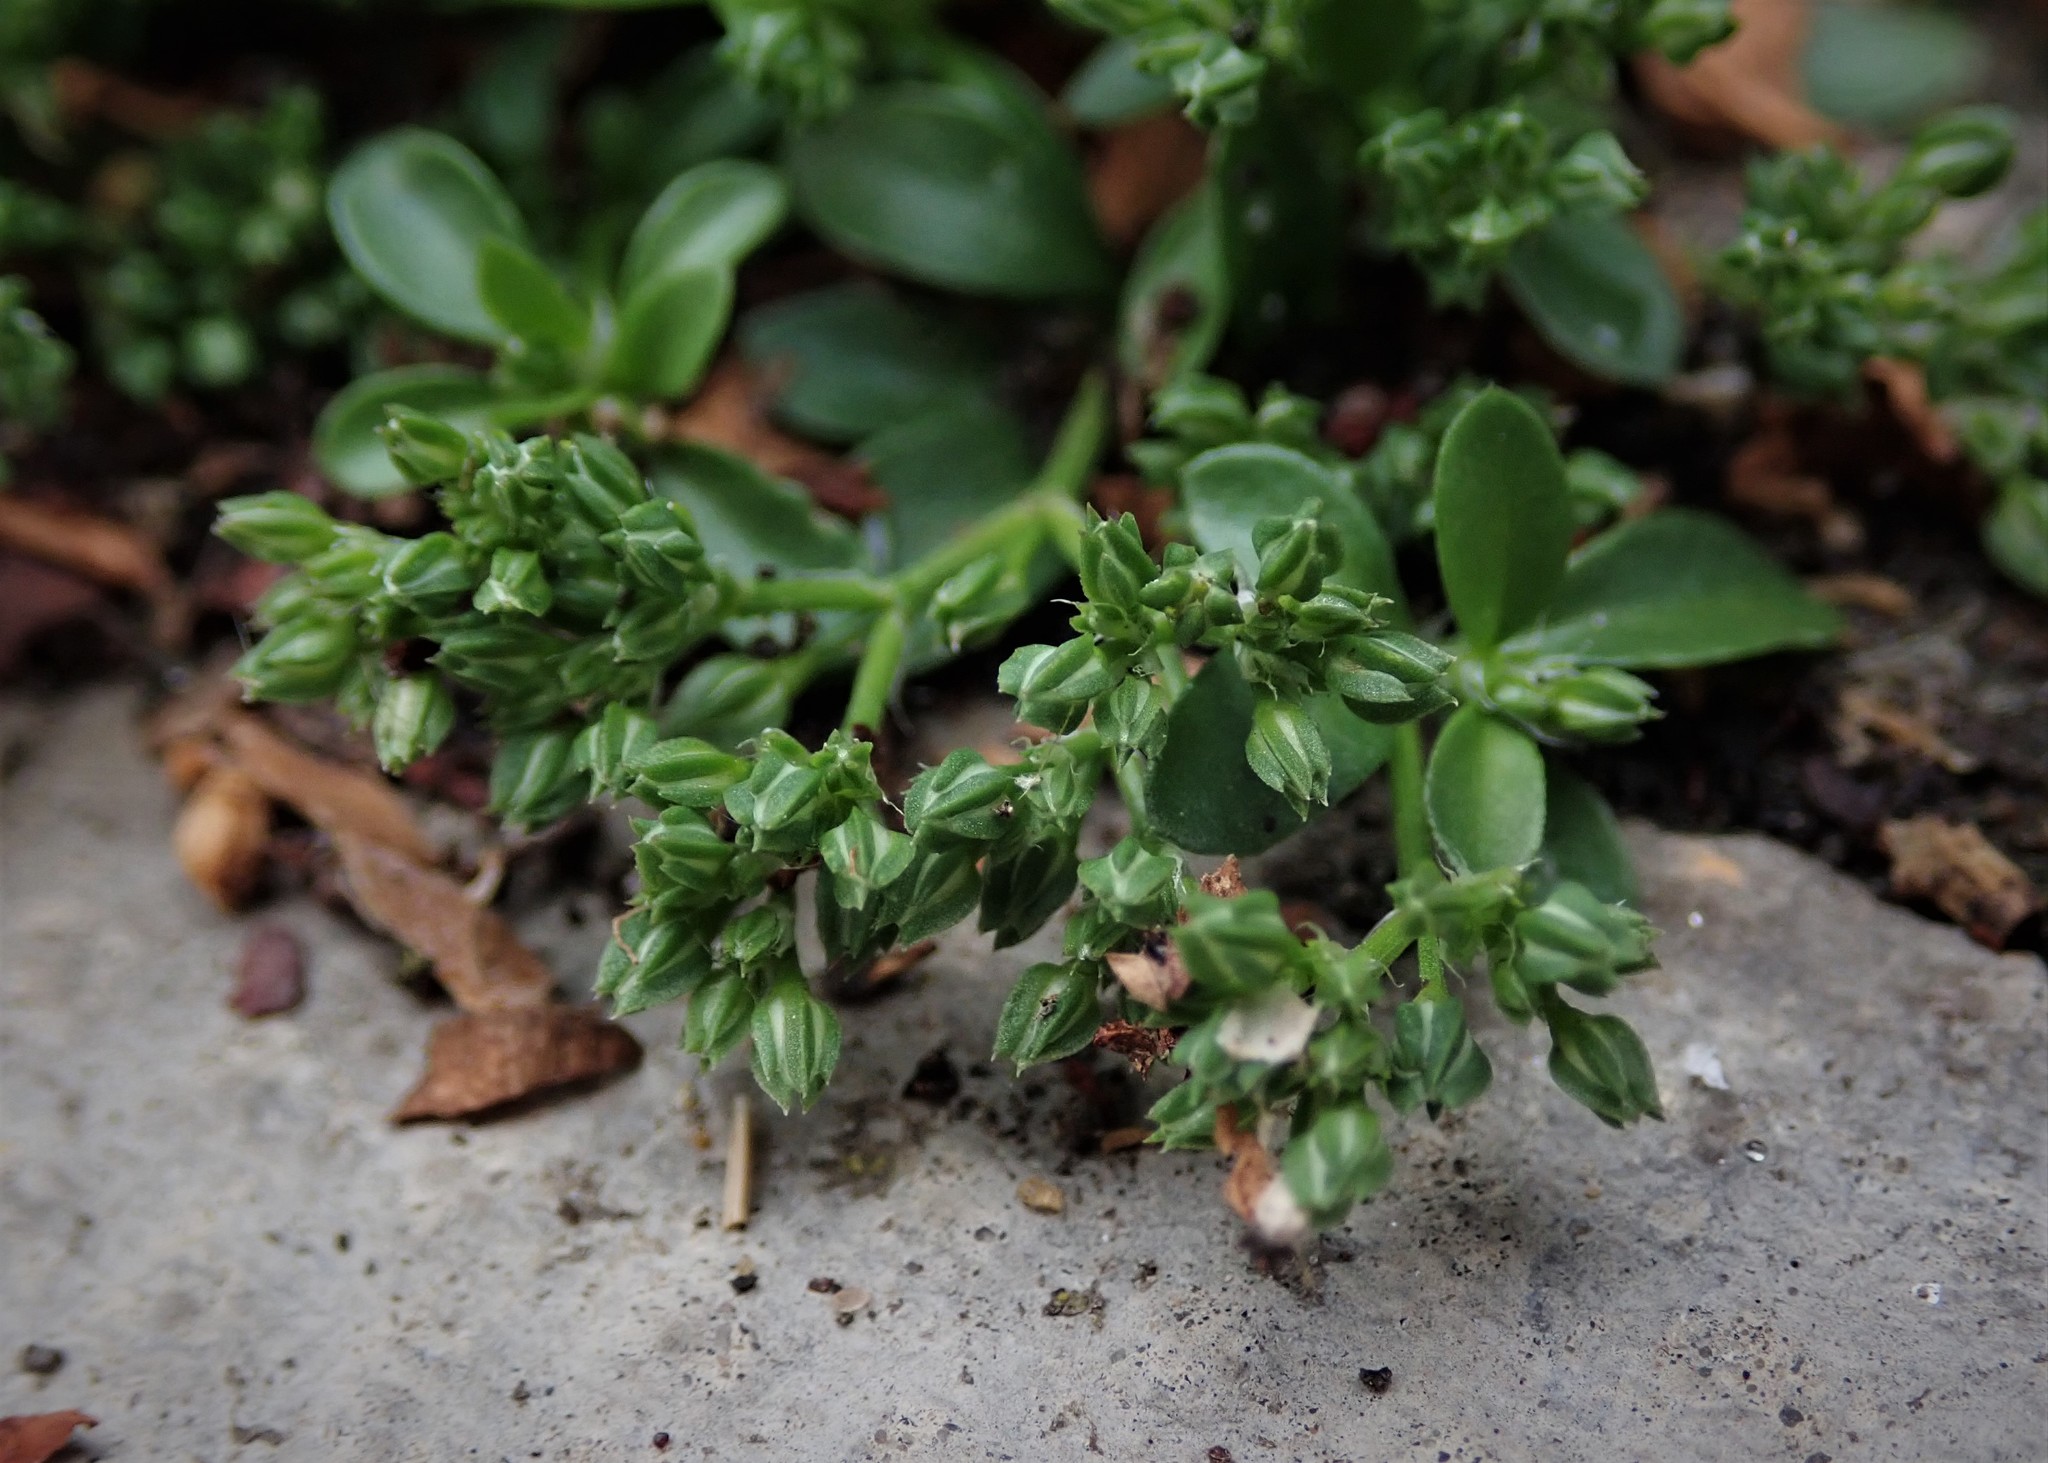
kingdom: Plantae
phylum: Tracheophyta
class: Magnoliopsida
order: Caryophyllales
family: Caryophyllaceae
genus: Polycarpon
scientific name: Polycarpon tetraphyllum
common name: Four-leaved all-seed
